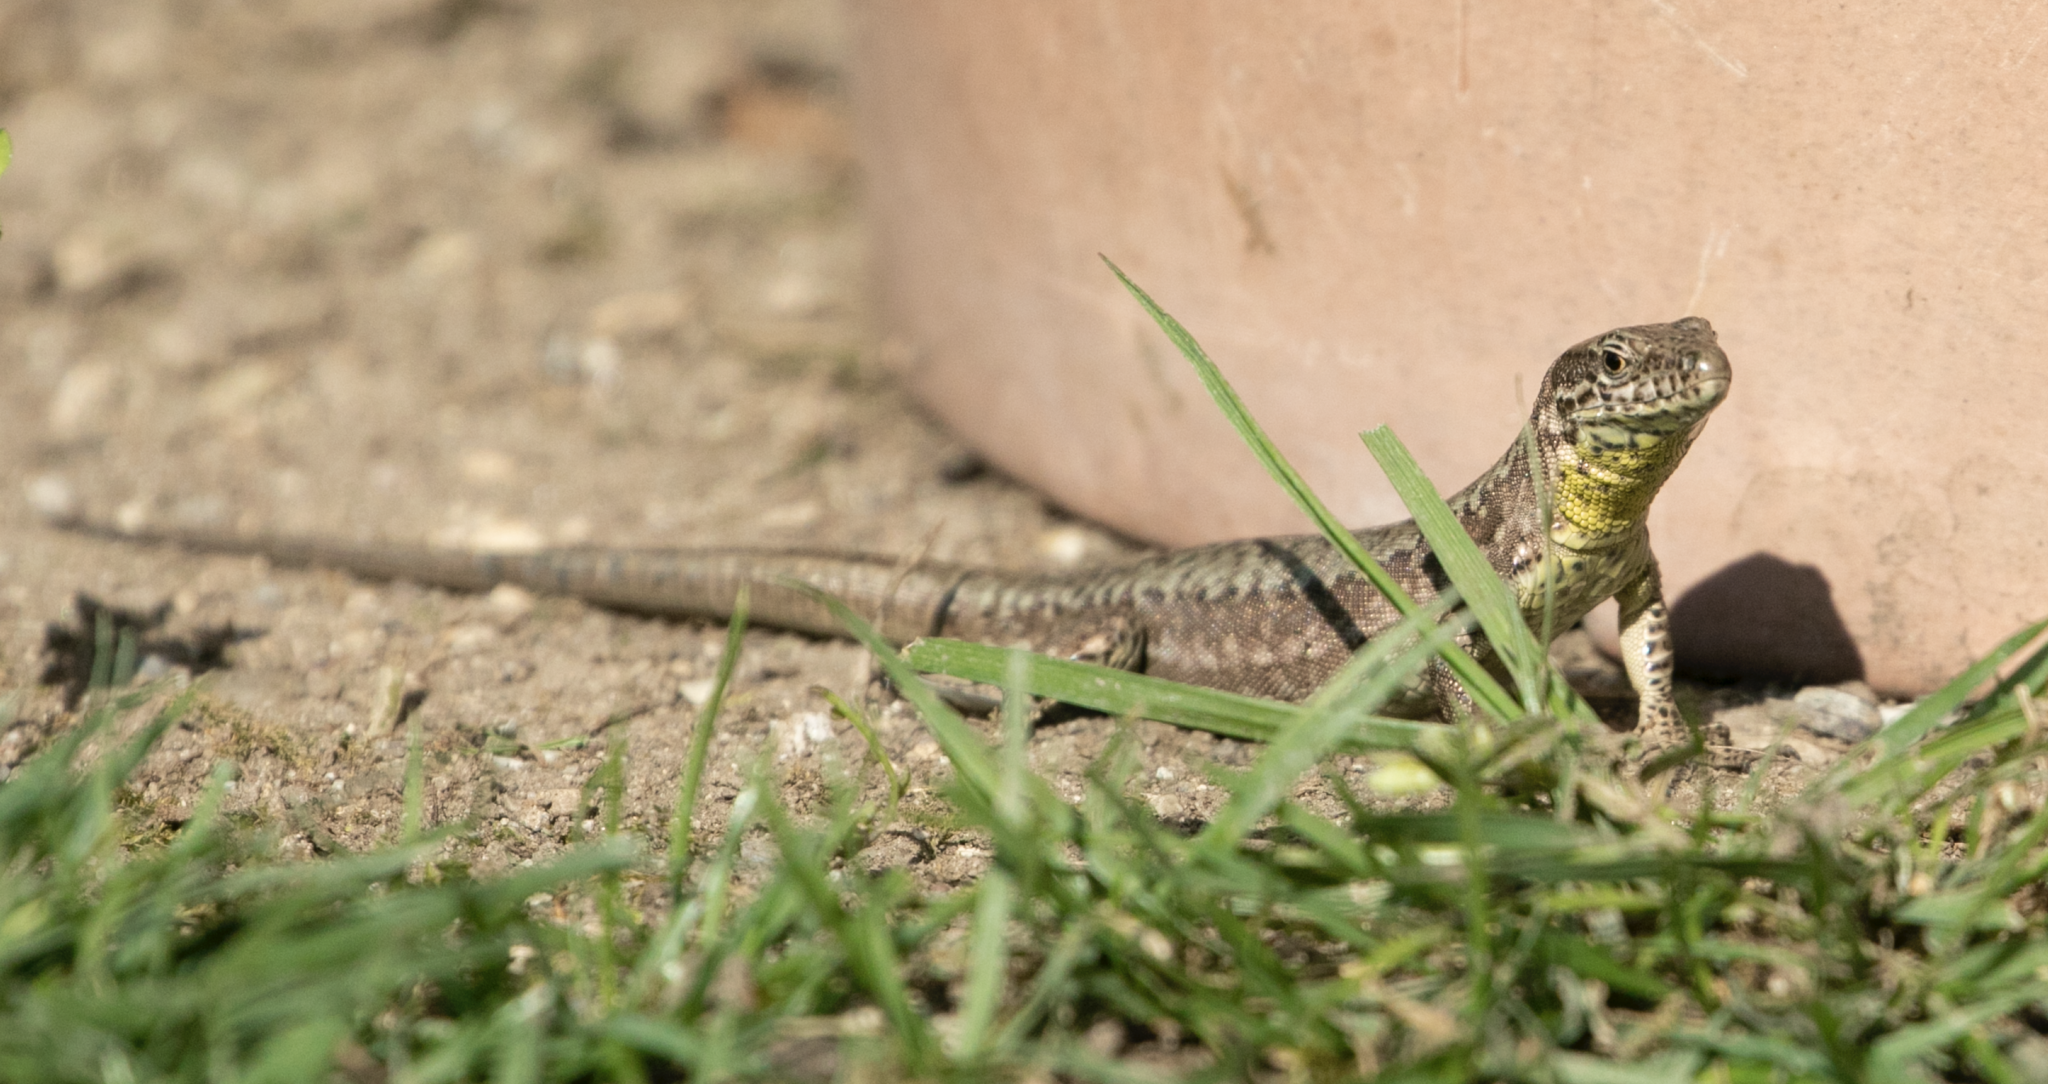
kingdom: Animalia
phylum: Chordata
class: Squamata
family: Lacertidae
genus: Podarcis
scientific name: Podarcis muralis
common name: Common wall lizard
